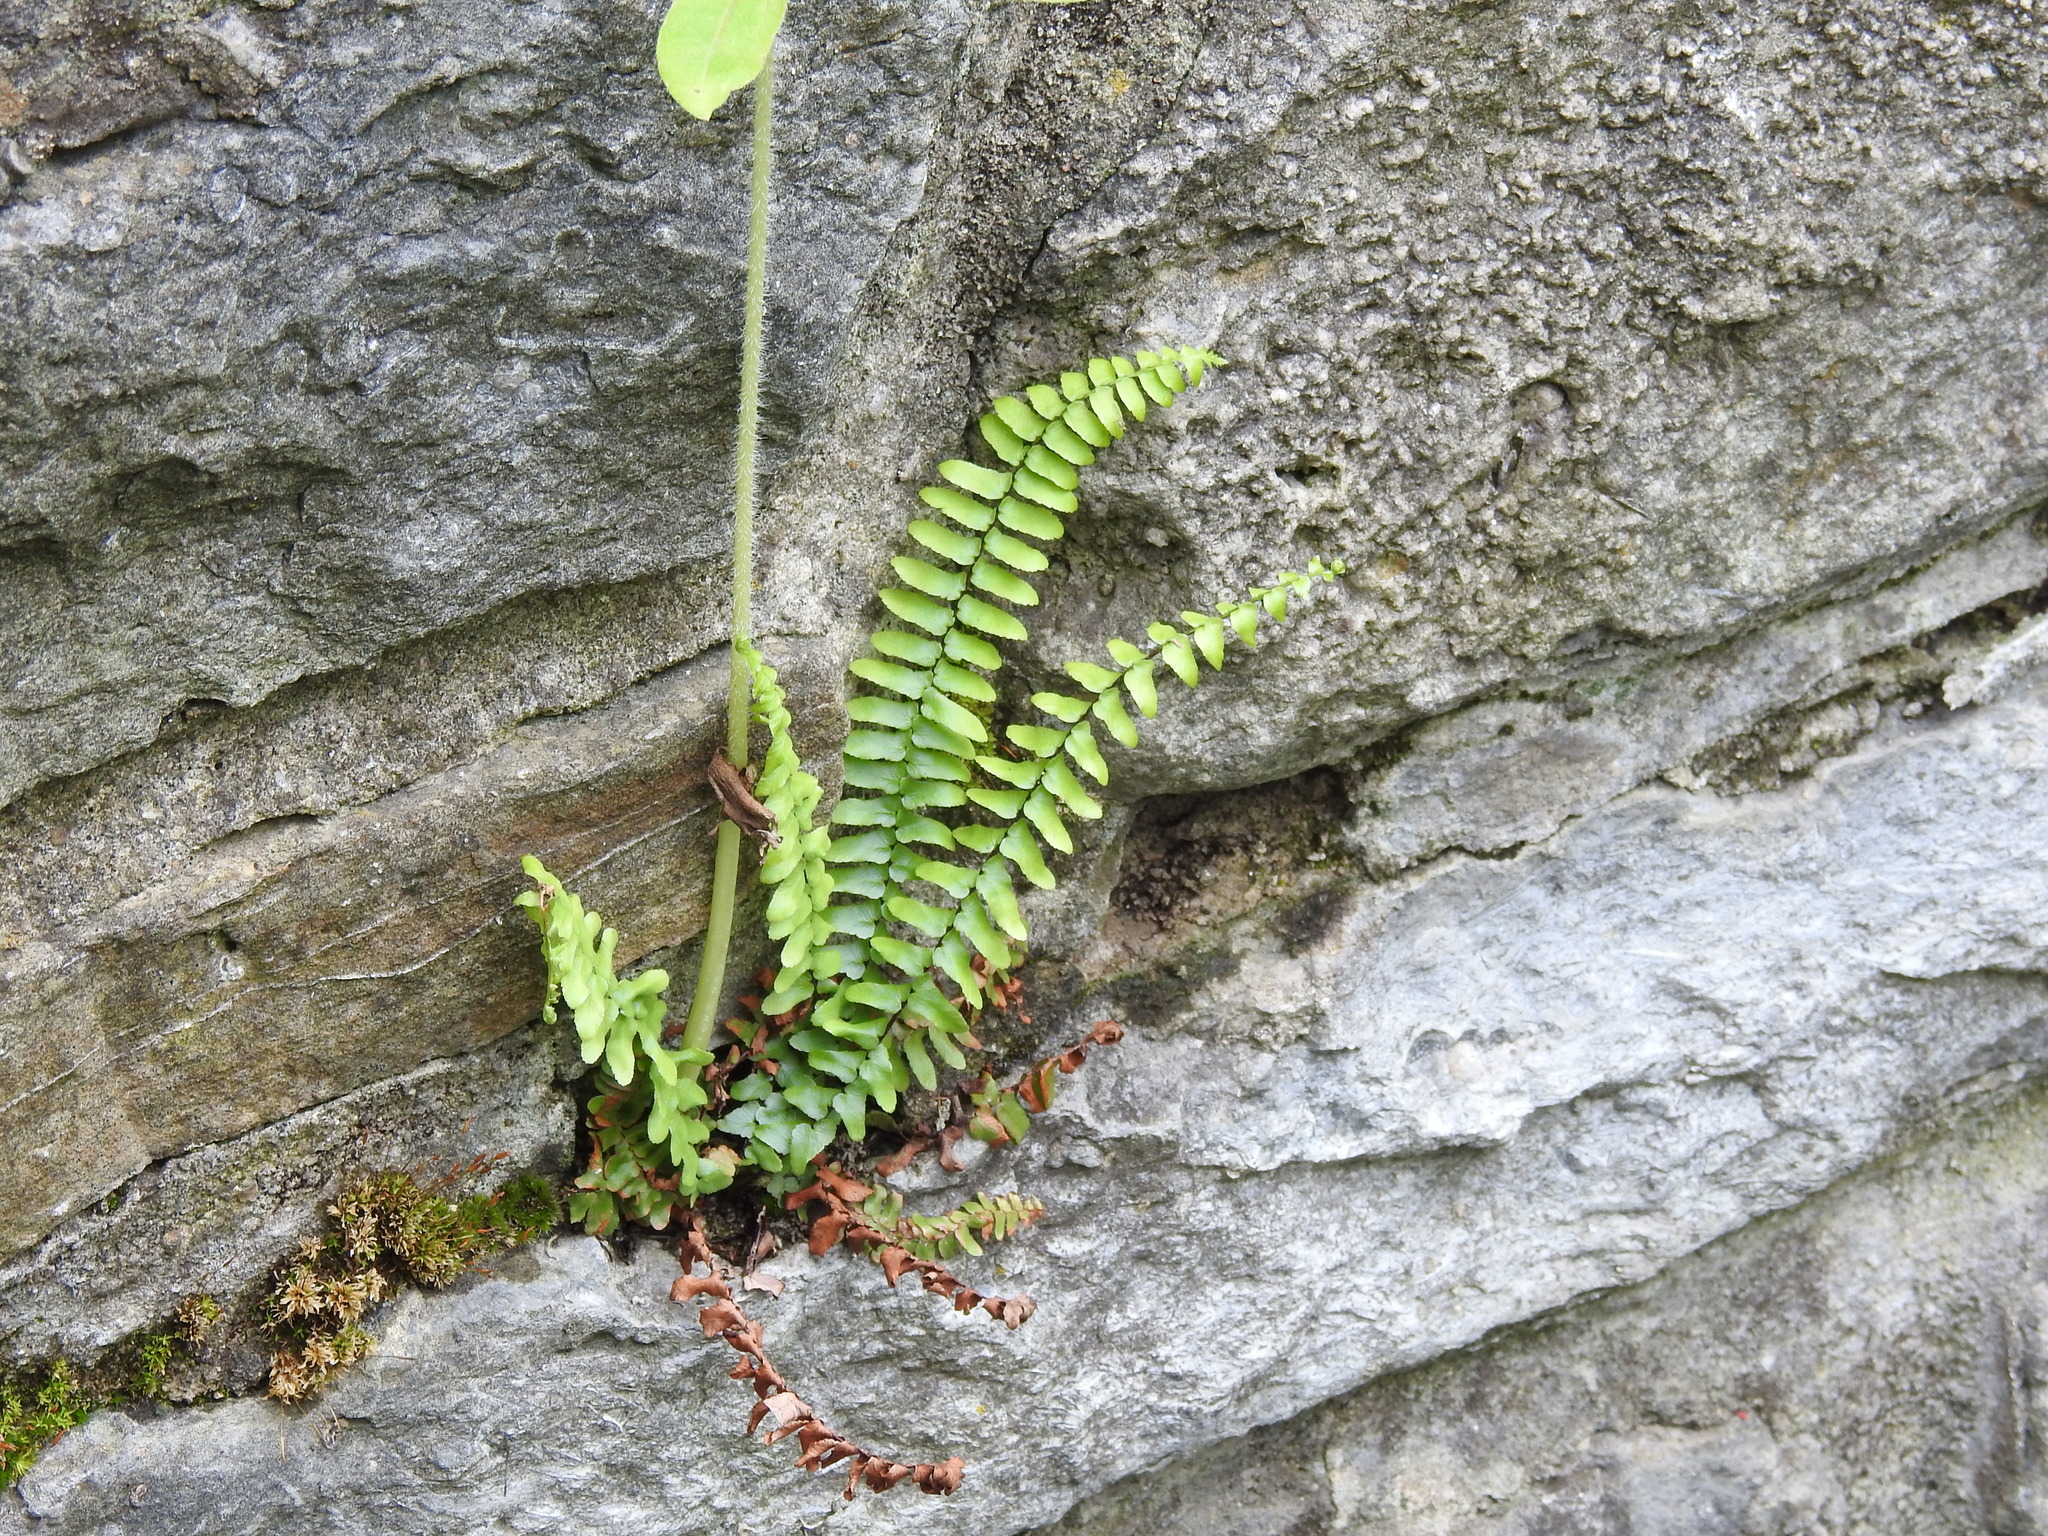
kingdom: Plantae
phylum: Tracheophyta
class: Polypodiopsida
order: Polypodiales
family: Aspleniaceae
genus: Asplenium
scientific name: Asplenium platyneuron
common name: Ebony spleenwort
